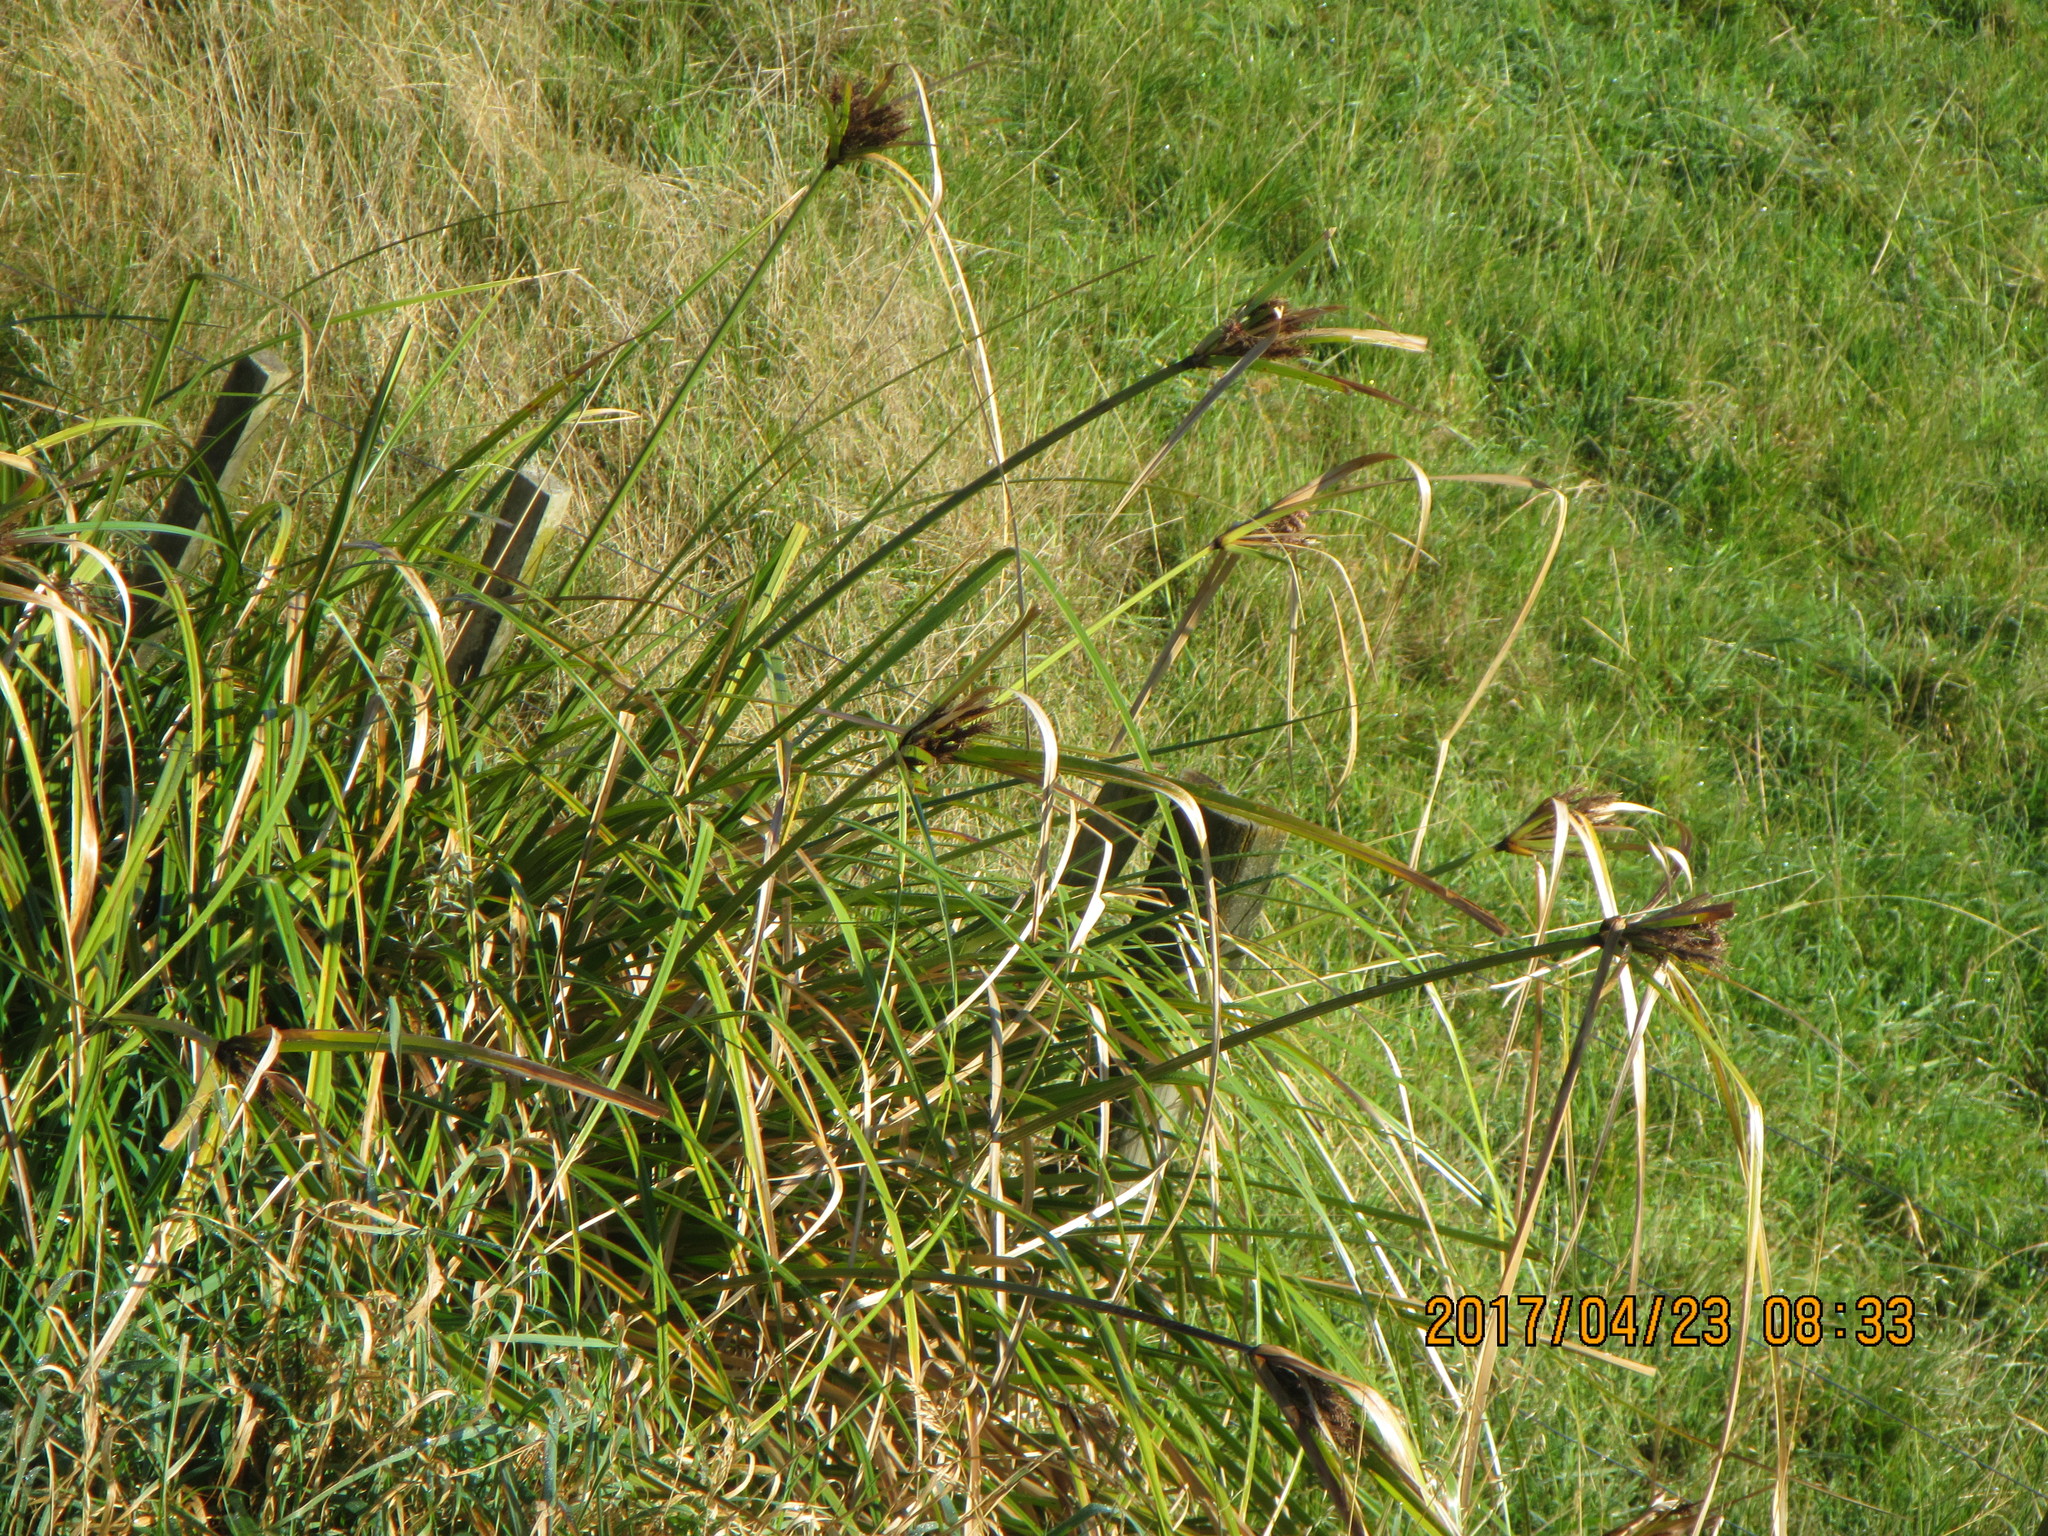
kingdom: Plantae
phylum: Tracheophyta
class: Liliopsida
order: Poales
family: Cyperaceae
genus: Cyperus
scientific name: Cyperus ustulatus
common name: Giant umbrella-sedge
